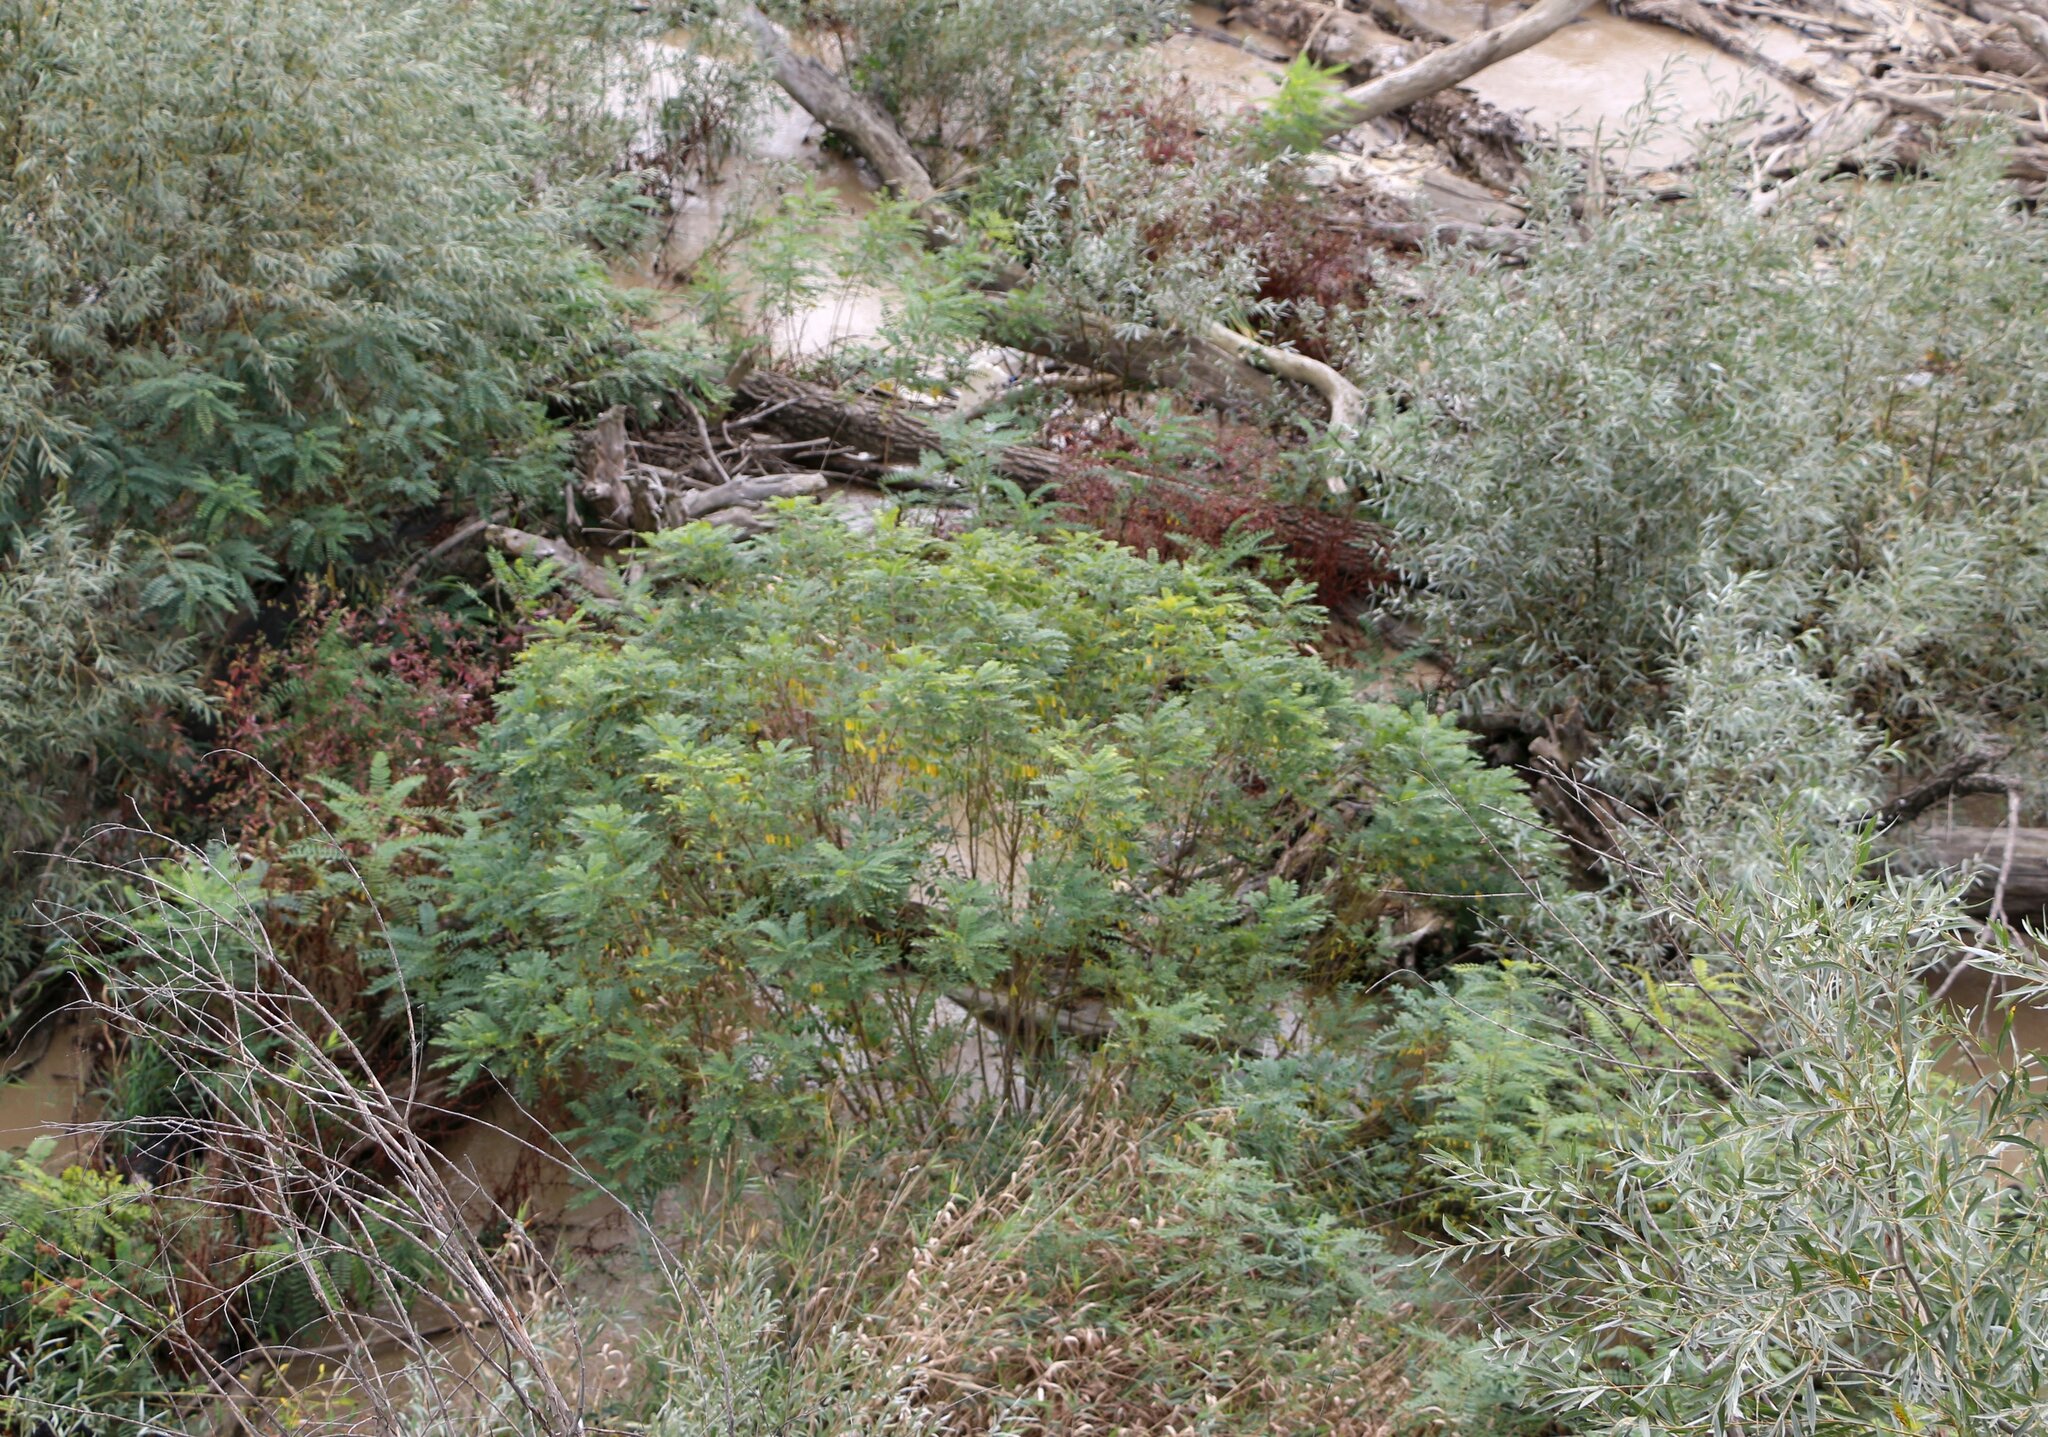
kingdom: Plantae
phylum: Tracheophyta
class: Magnoliopsida
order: Fabales
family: Fabaceae
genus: Amorpha
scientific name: Amorpha fruticosa
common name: False indigo
